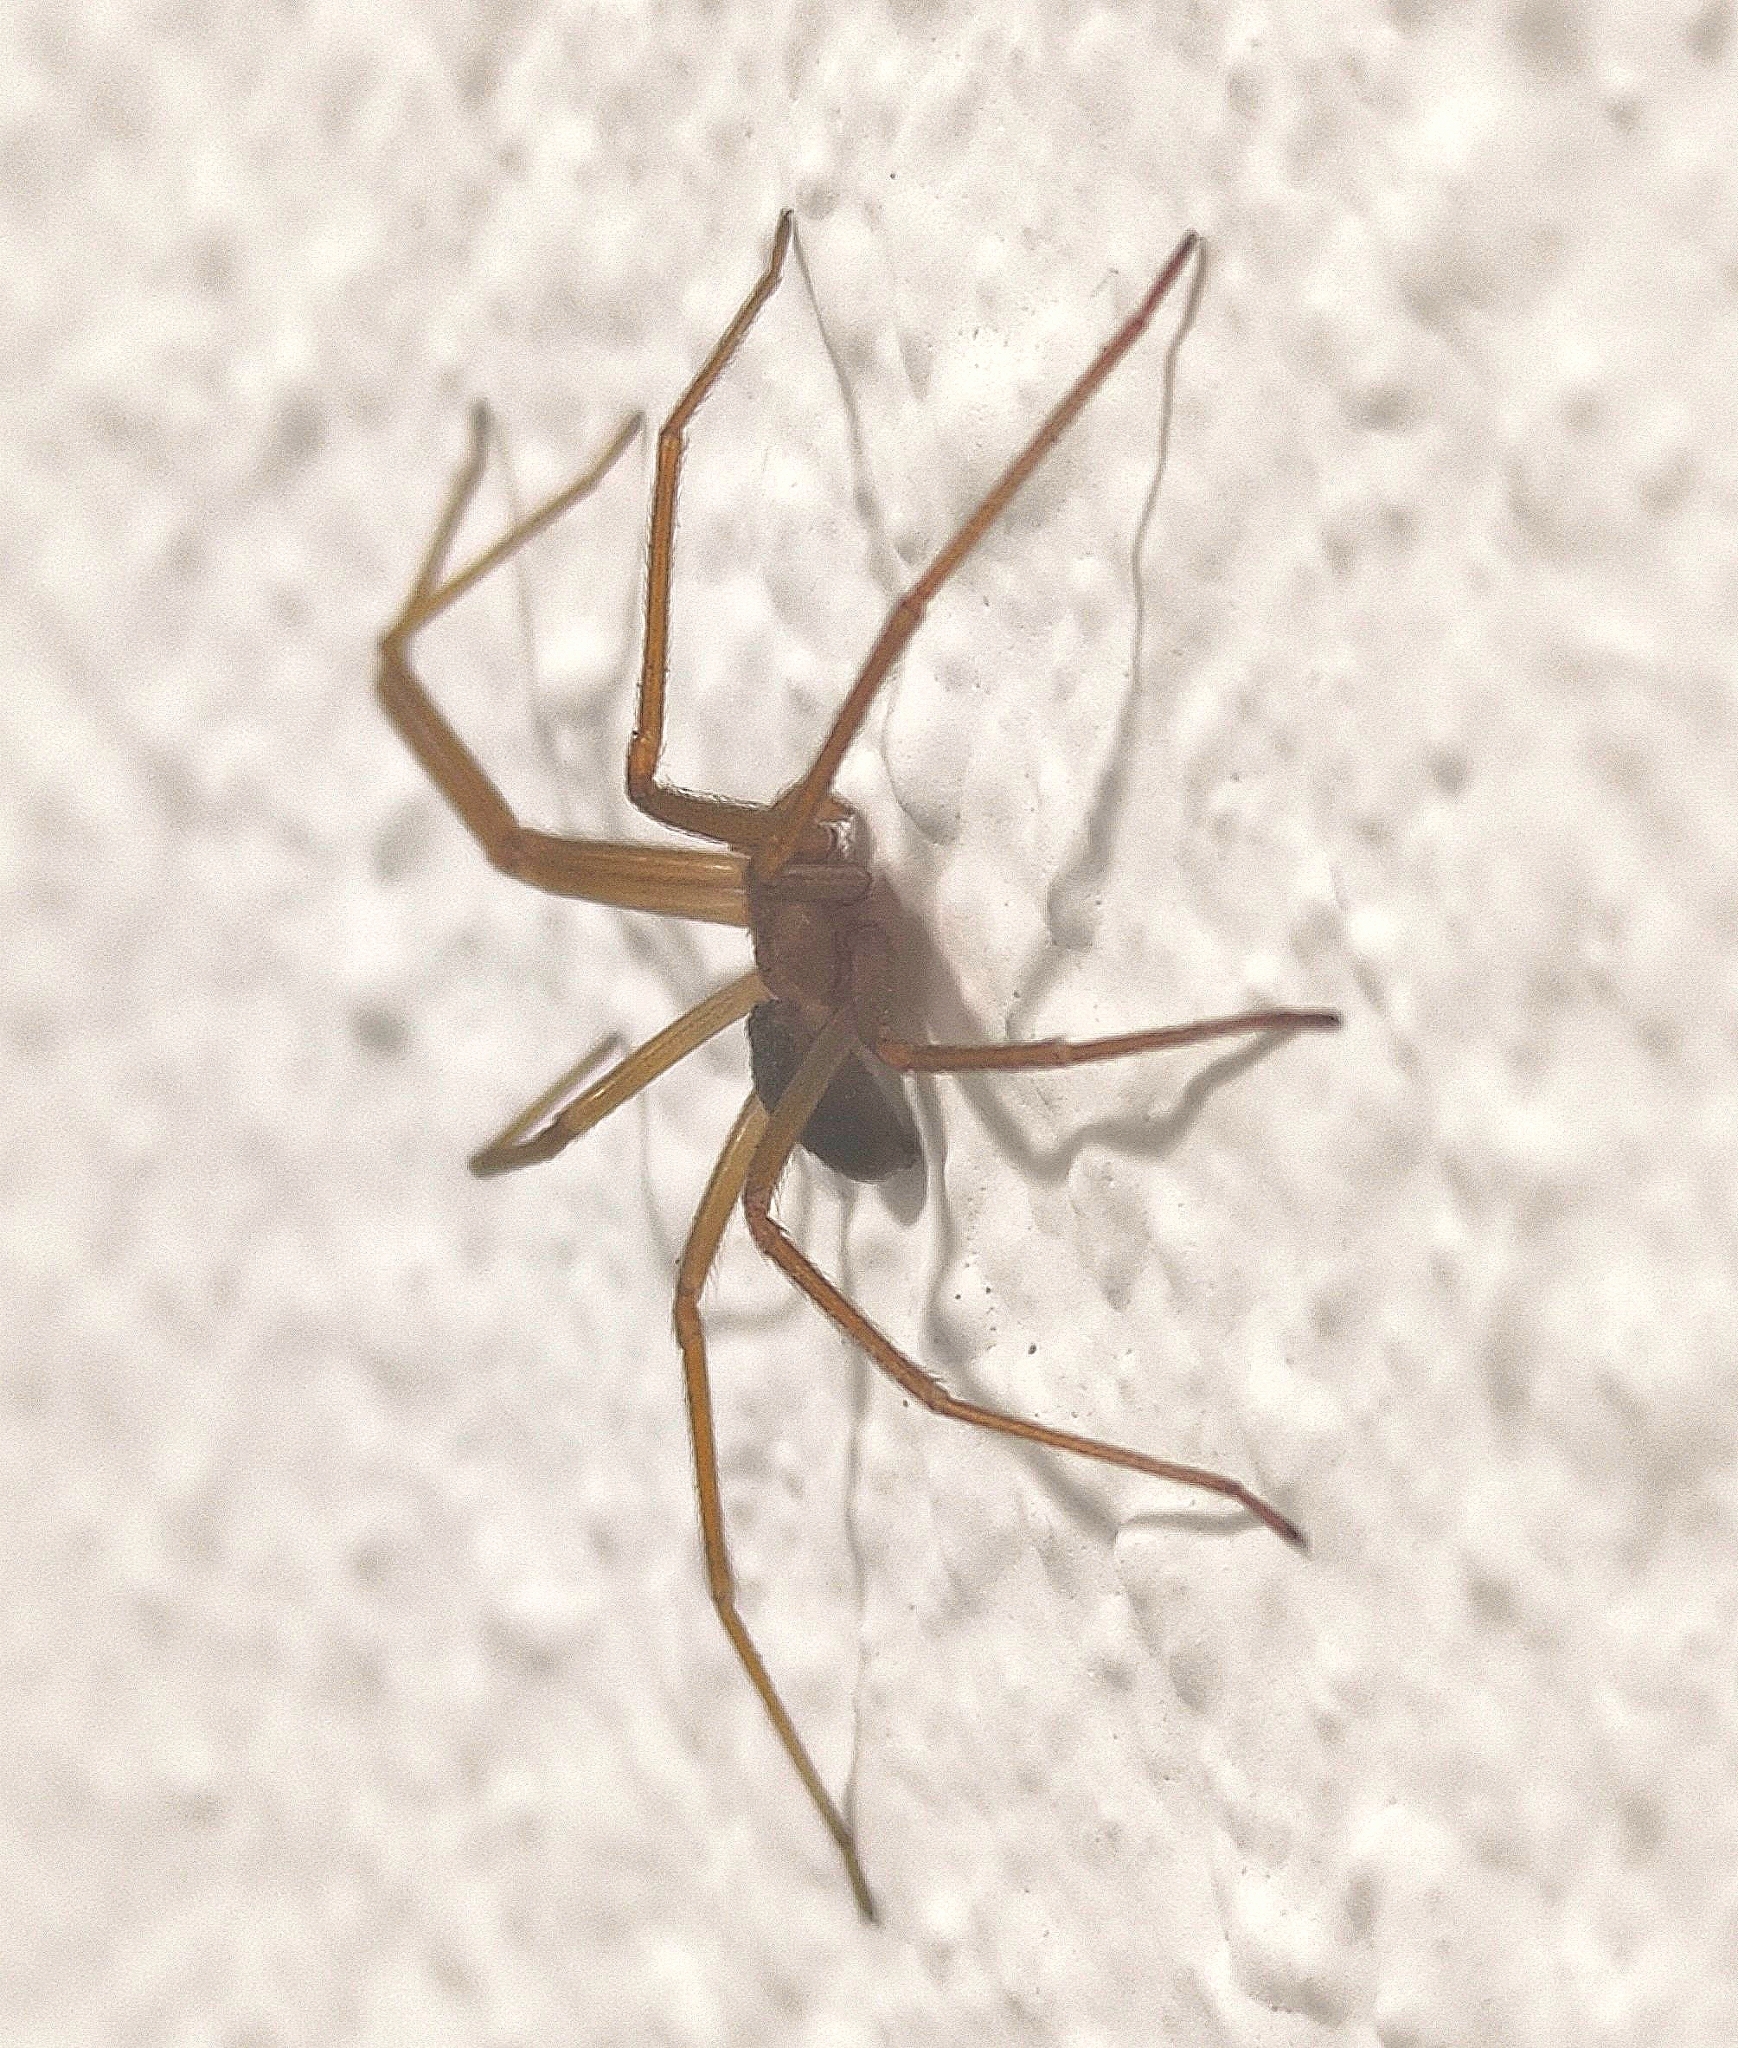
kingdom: Animalia
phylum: Arthropoda
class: Arachnida
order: Araneae
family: Sicariidae
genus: Loxosceles
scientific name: Loxosceles rufescens
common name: Mediterranean recluse spider
